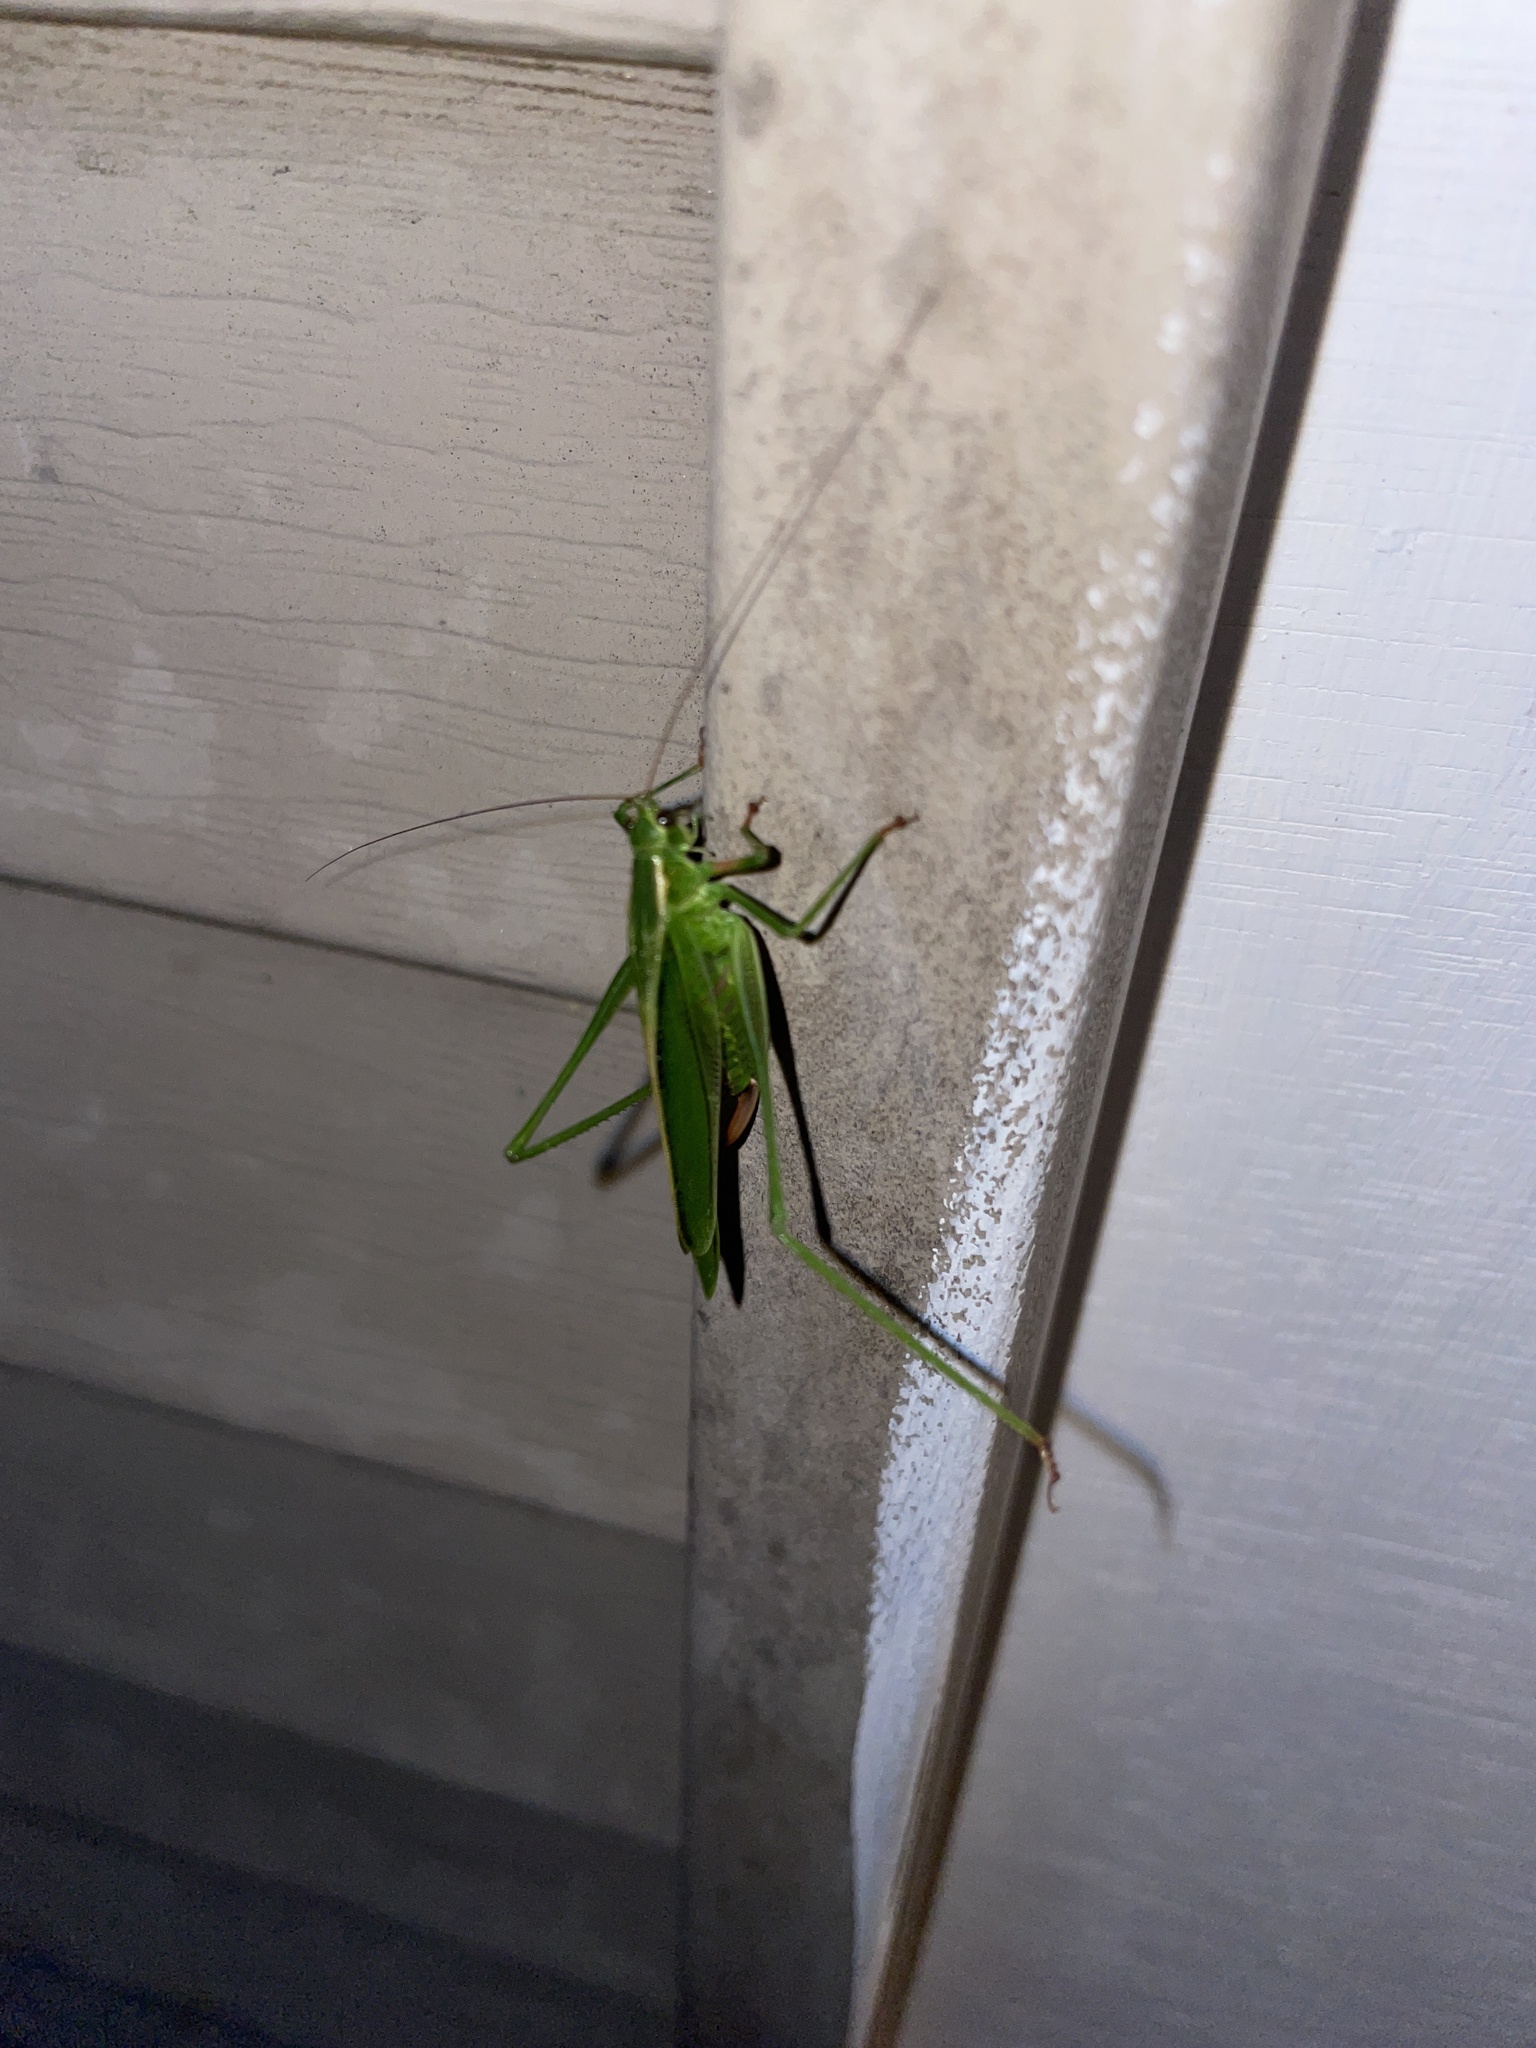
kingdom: Animalia
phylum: Arthropoda
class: Insecta
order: Orthoptera
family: Tettigoniidae
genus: Scudderia
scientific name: Scudderia fasciata
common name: Treetop bush katydid
